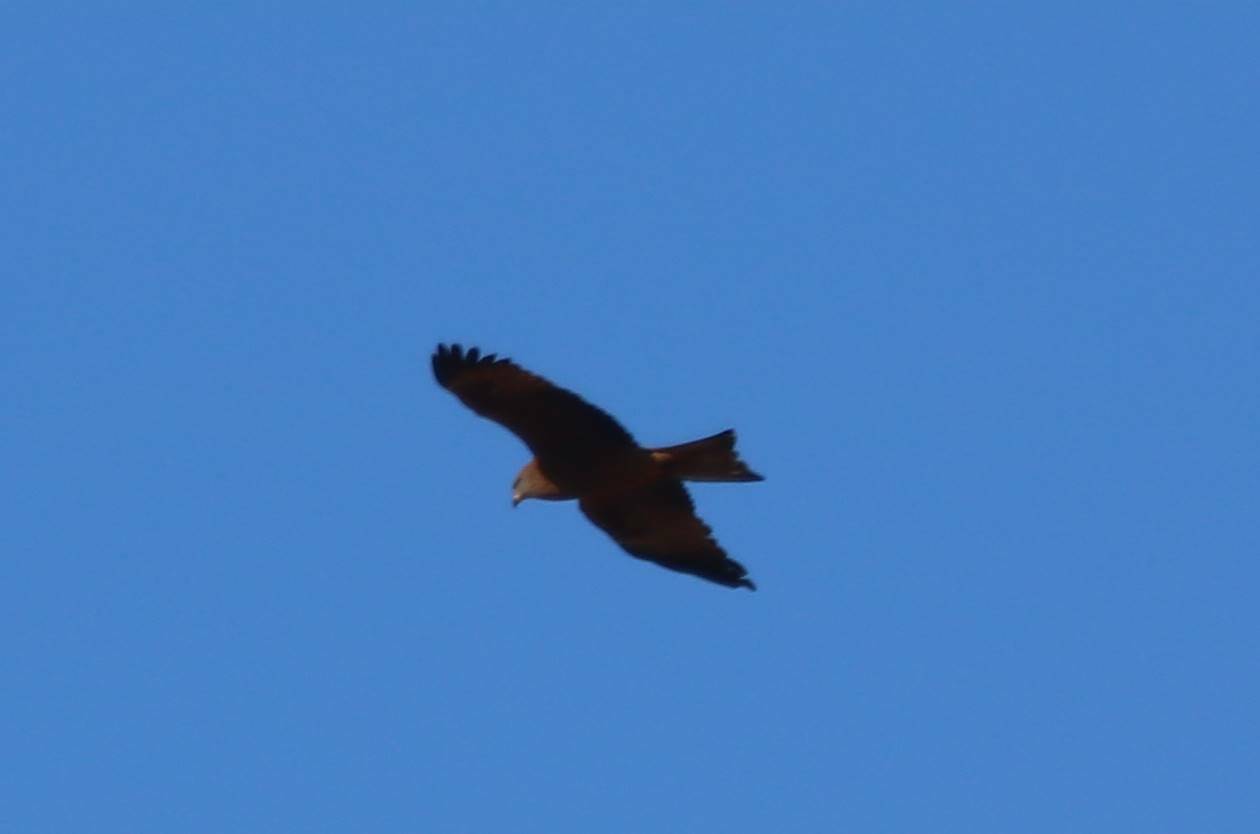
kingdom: Animalia
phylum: Chordata
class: Aves
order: Accipitriformes
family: Accipitridae
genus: Milvus
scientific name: Milvus migrans
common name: Black kite
